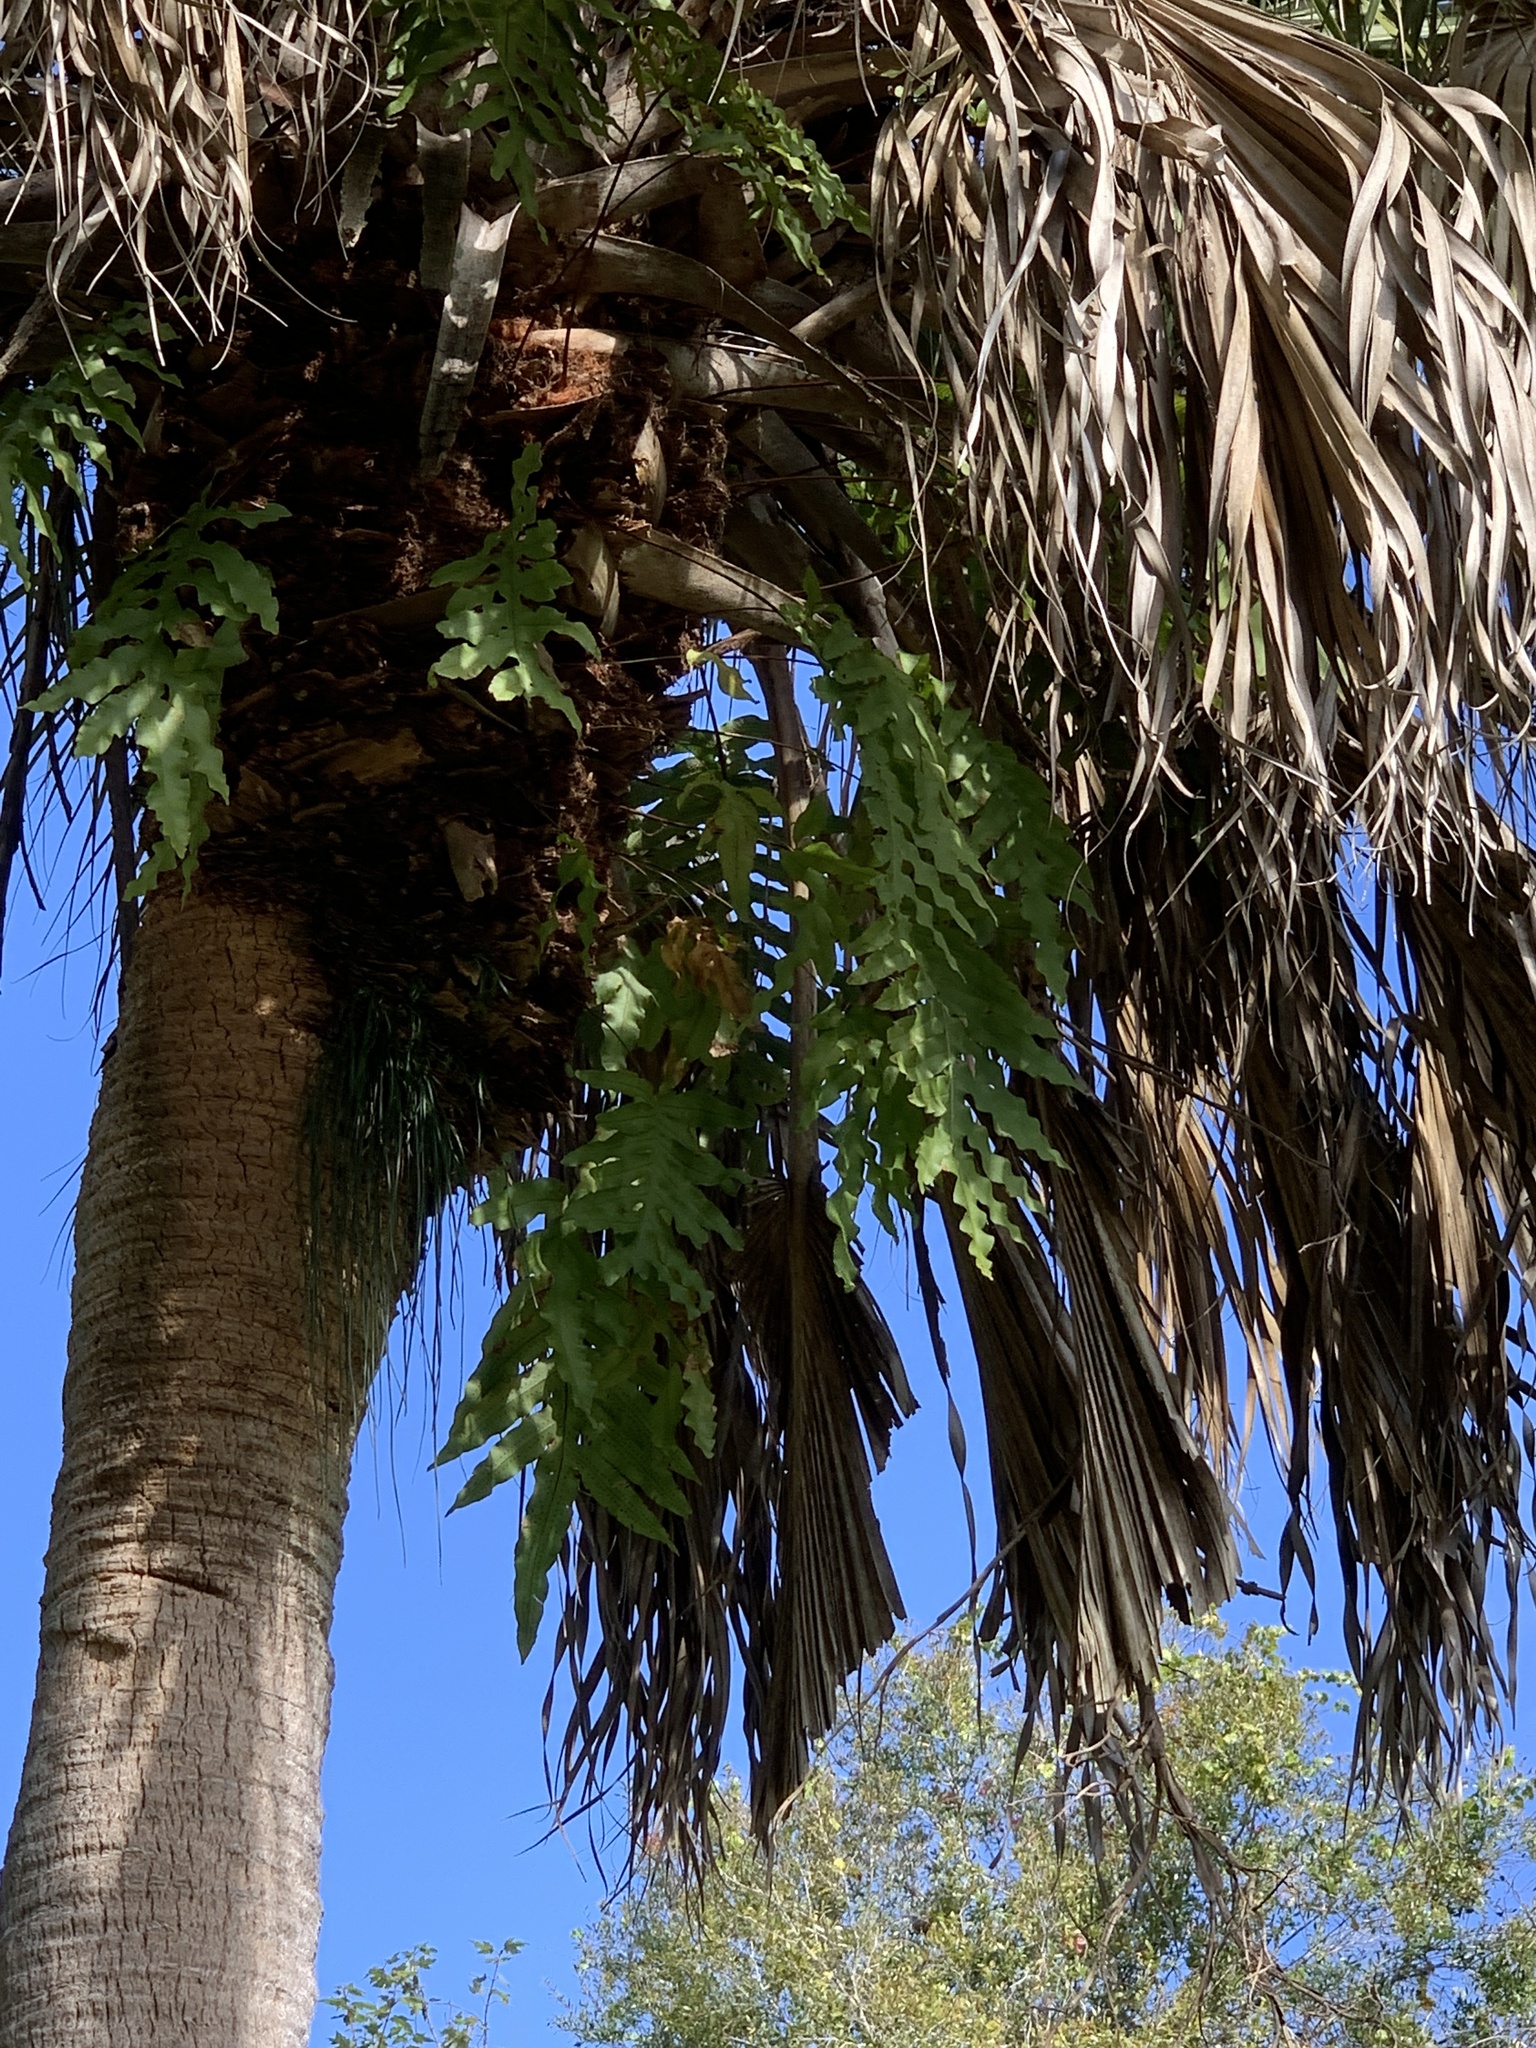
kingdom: Plantae
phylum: Tracheophyta
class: Polypodiopsida
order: Polypodiales
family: Polypodiaceae
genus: Phlebodium
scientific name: Phlebodium aureum
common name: Gold-foot fern
